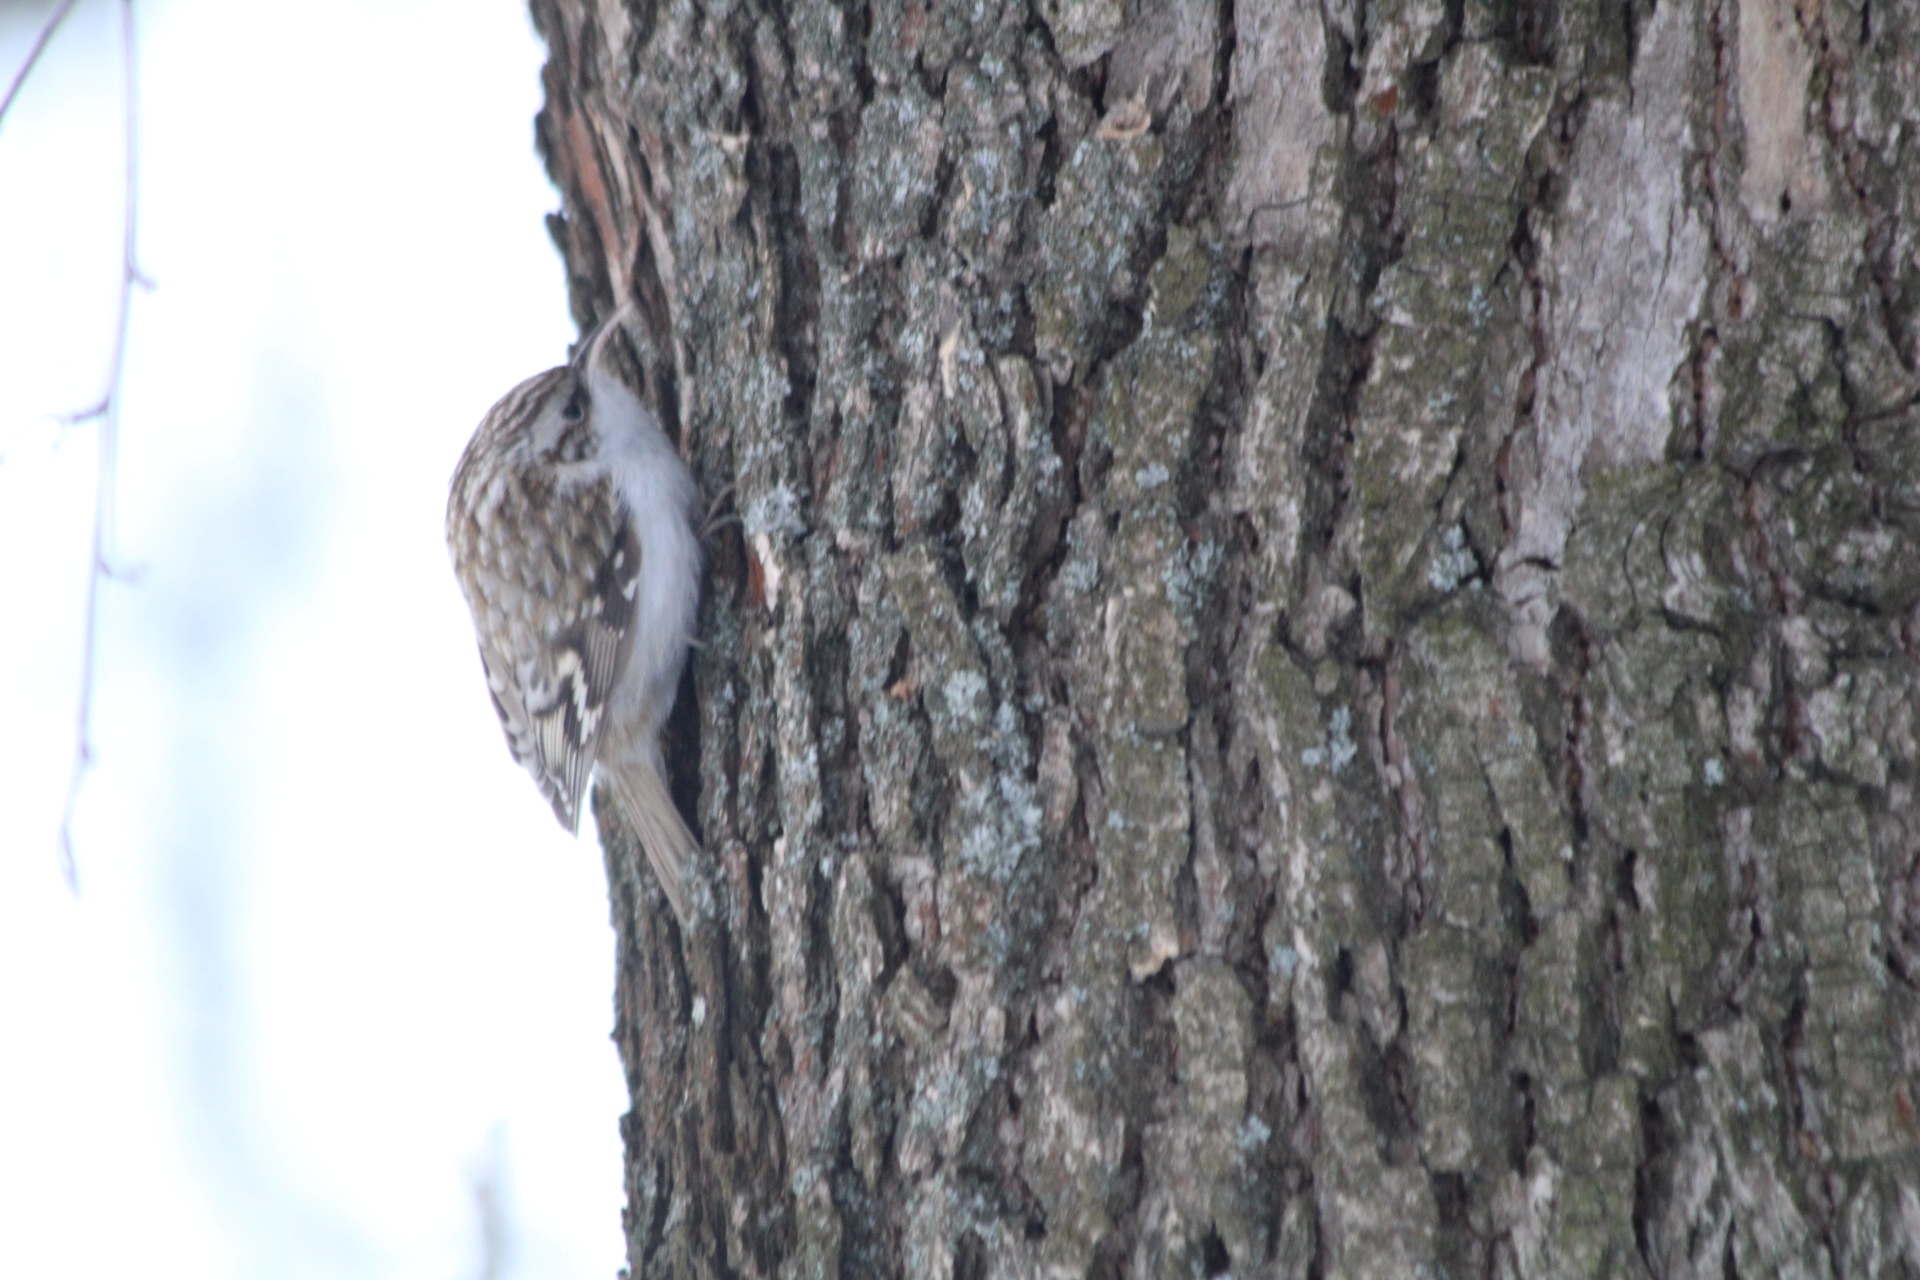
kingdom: Animalia
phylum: Chordata
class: Aves
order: Passeriformes
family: Certhiidae
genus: Certhia
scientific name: Certhia familiaris
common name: Eurasian treecreeper
